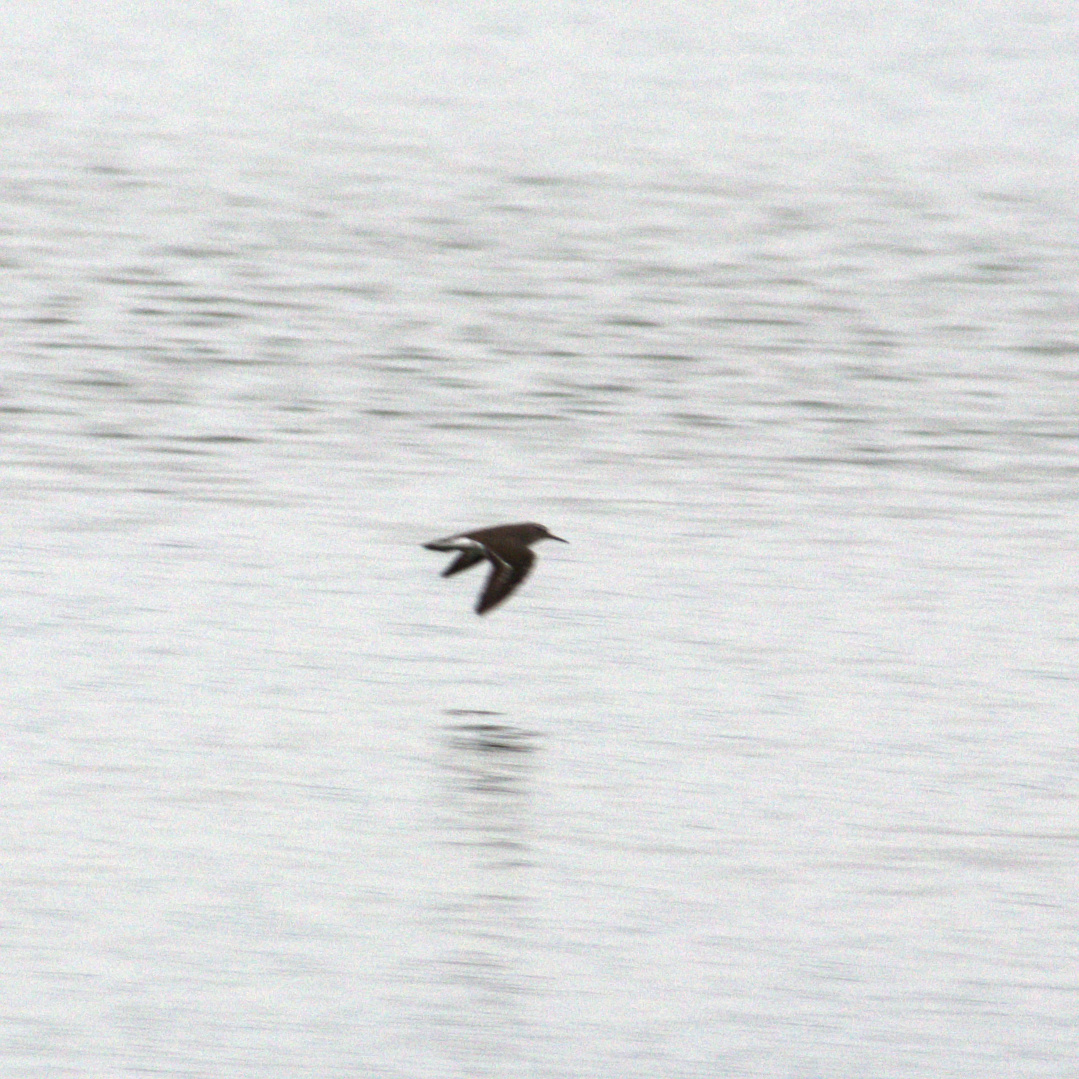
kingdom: Animalia
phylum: Chordata
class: Aves
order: Charadriiformes
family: Scolopacidae
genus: Actitis
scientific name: Actitis hypoleucos
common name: Common sandpiper
